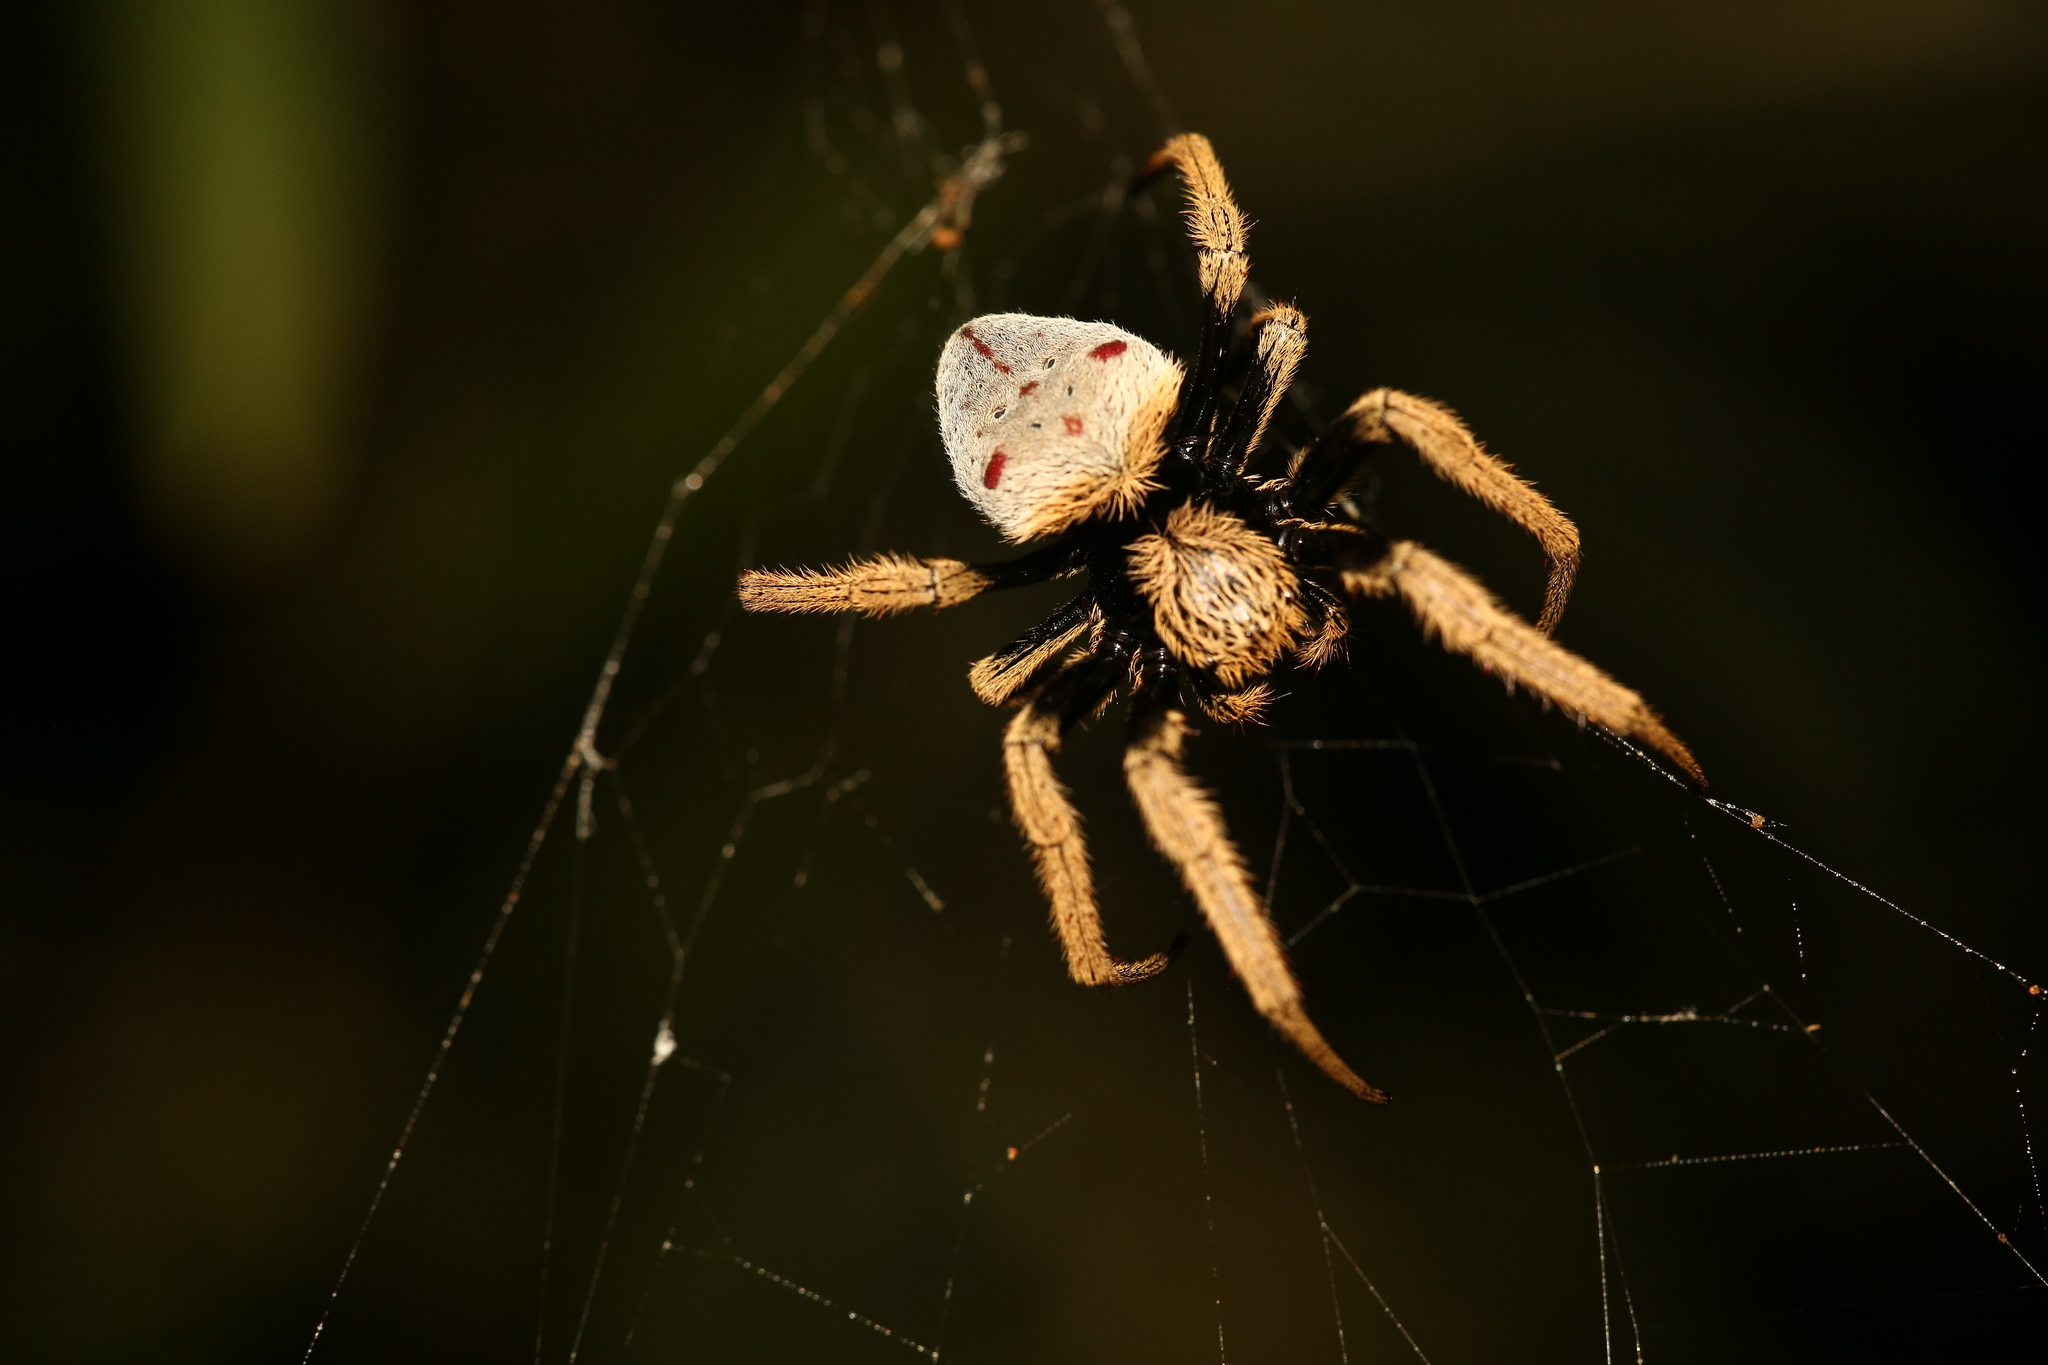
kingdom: Animalia
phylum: Arthropoda
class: Arachnida
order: Araneae
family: Araneidae
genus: Hortophora
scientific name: Hortophora flavicoma
